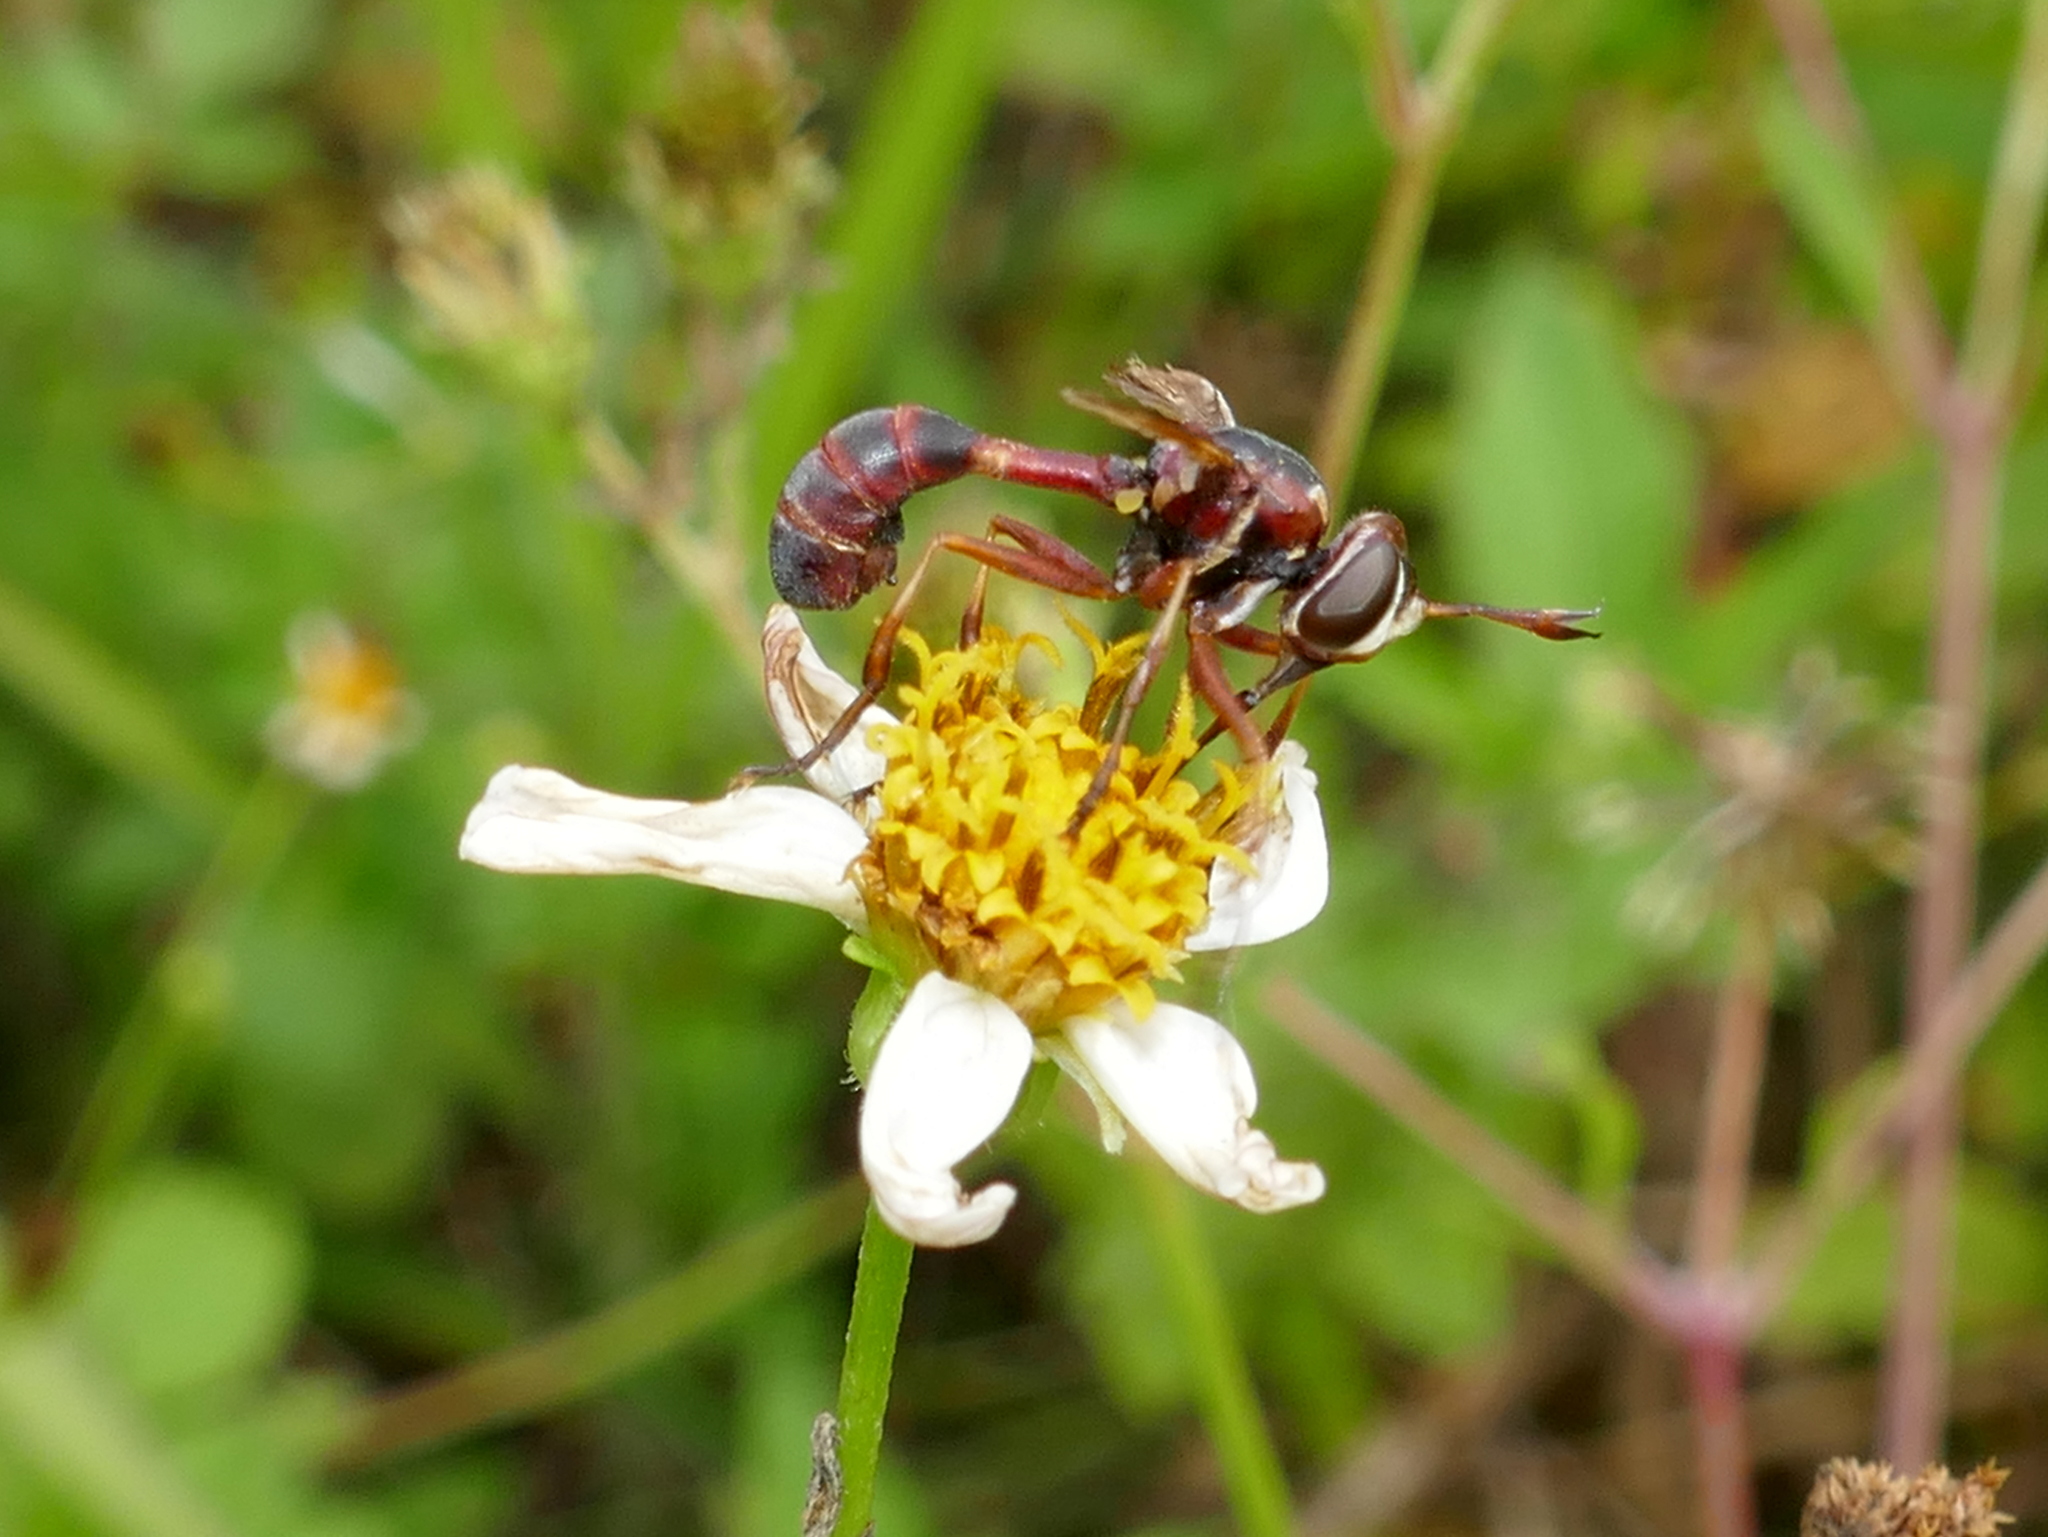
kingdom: Animalia
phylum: Arthropoda
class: Insecta
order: Diptera
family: Conopidae
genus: Physoconops
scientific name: Physoconops excisus
